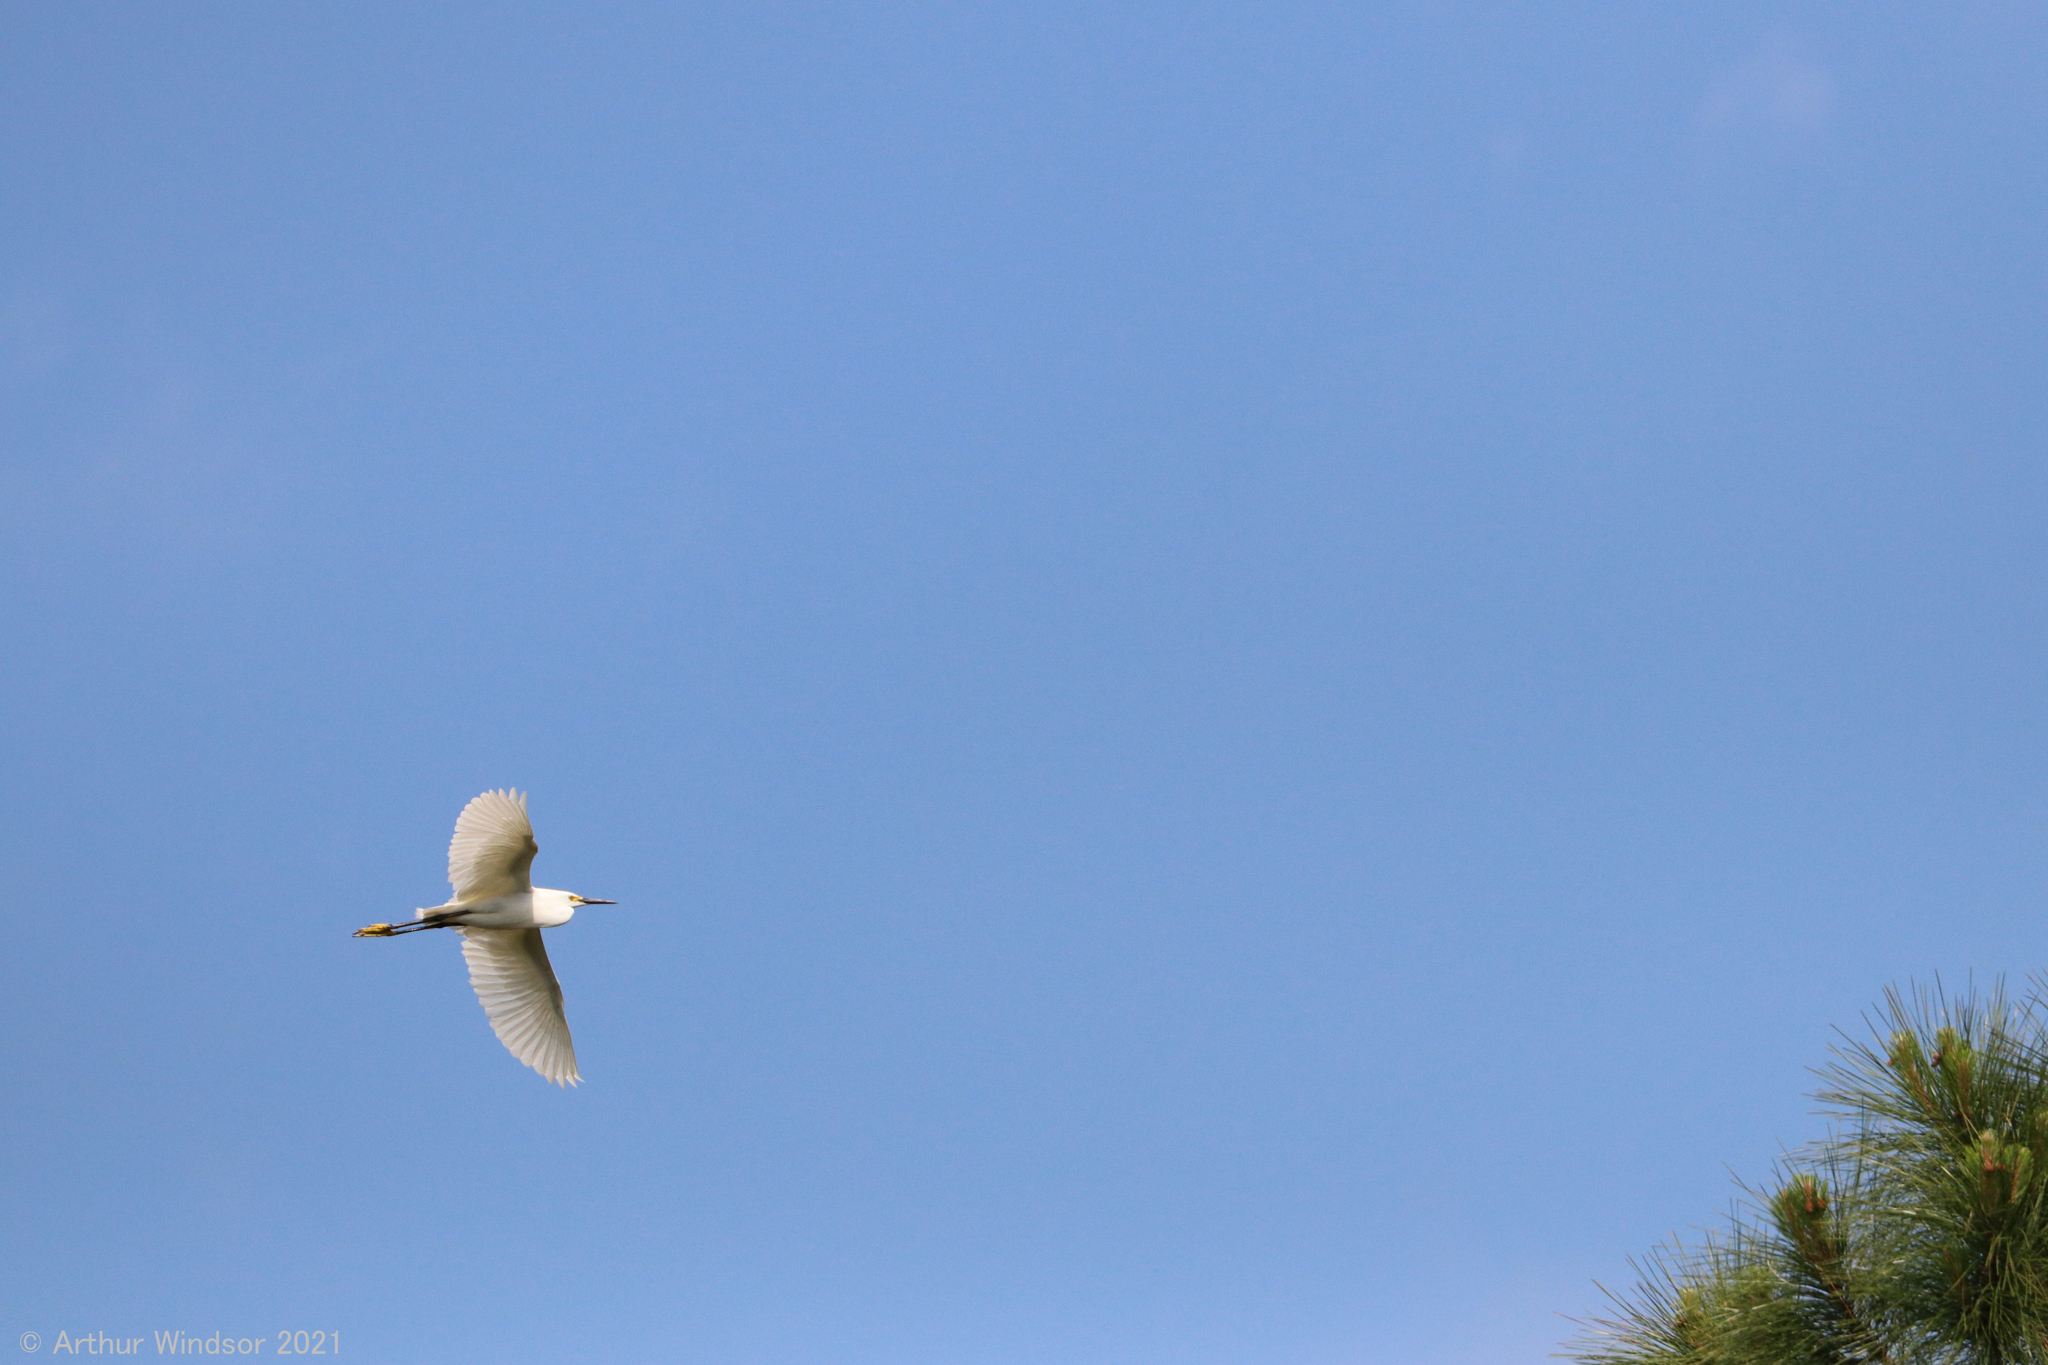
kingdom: Animalia
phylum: Chordata
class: Aves
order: Pelecaniformes
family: Ardeidae
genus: Egretta
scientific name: Egretta thula
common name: Snowy egret
